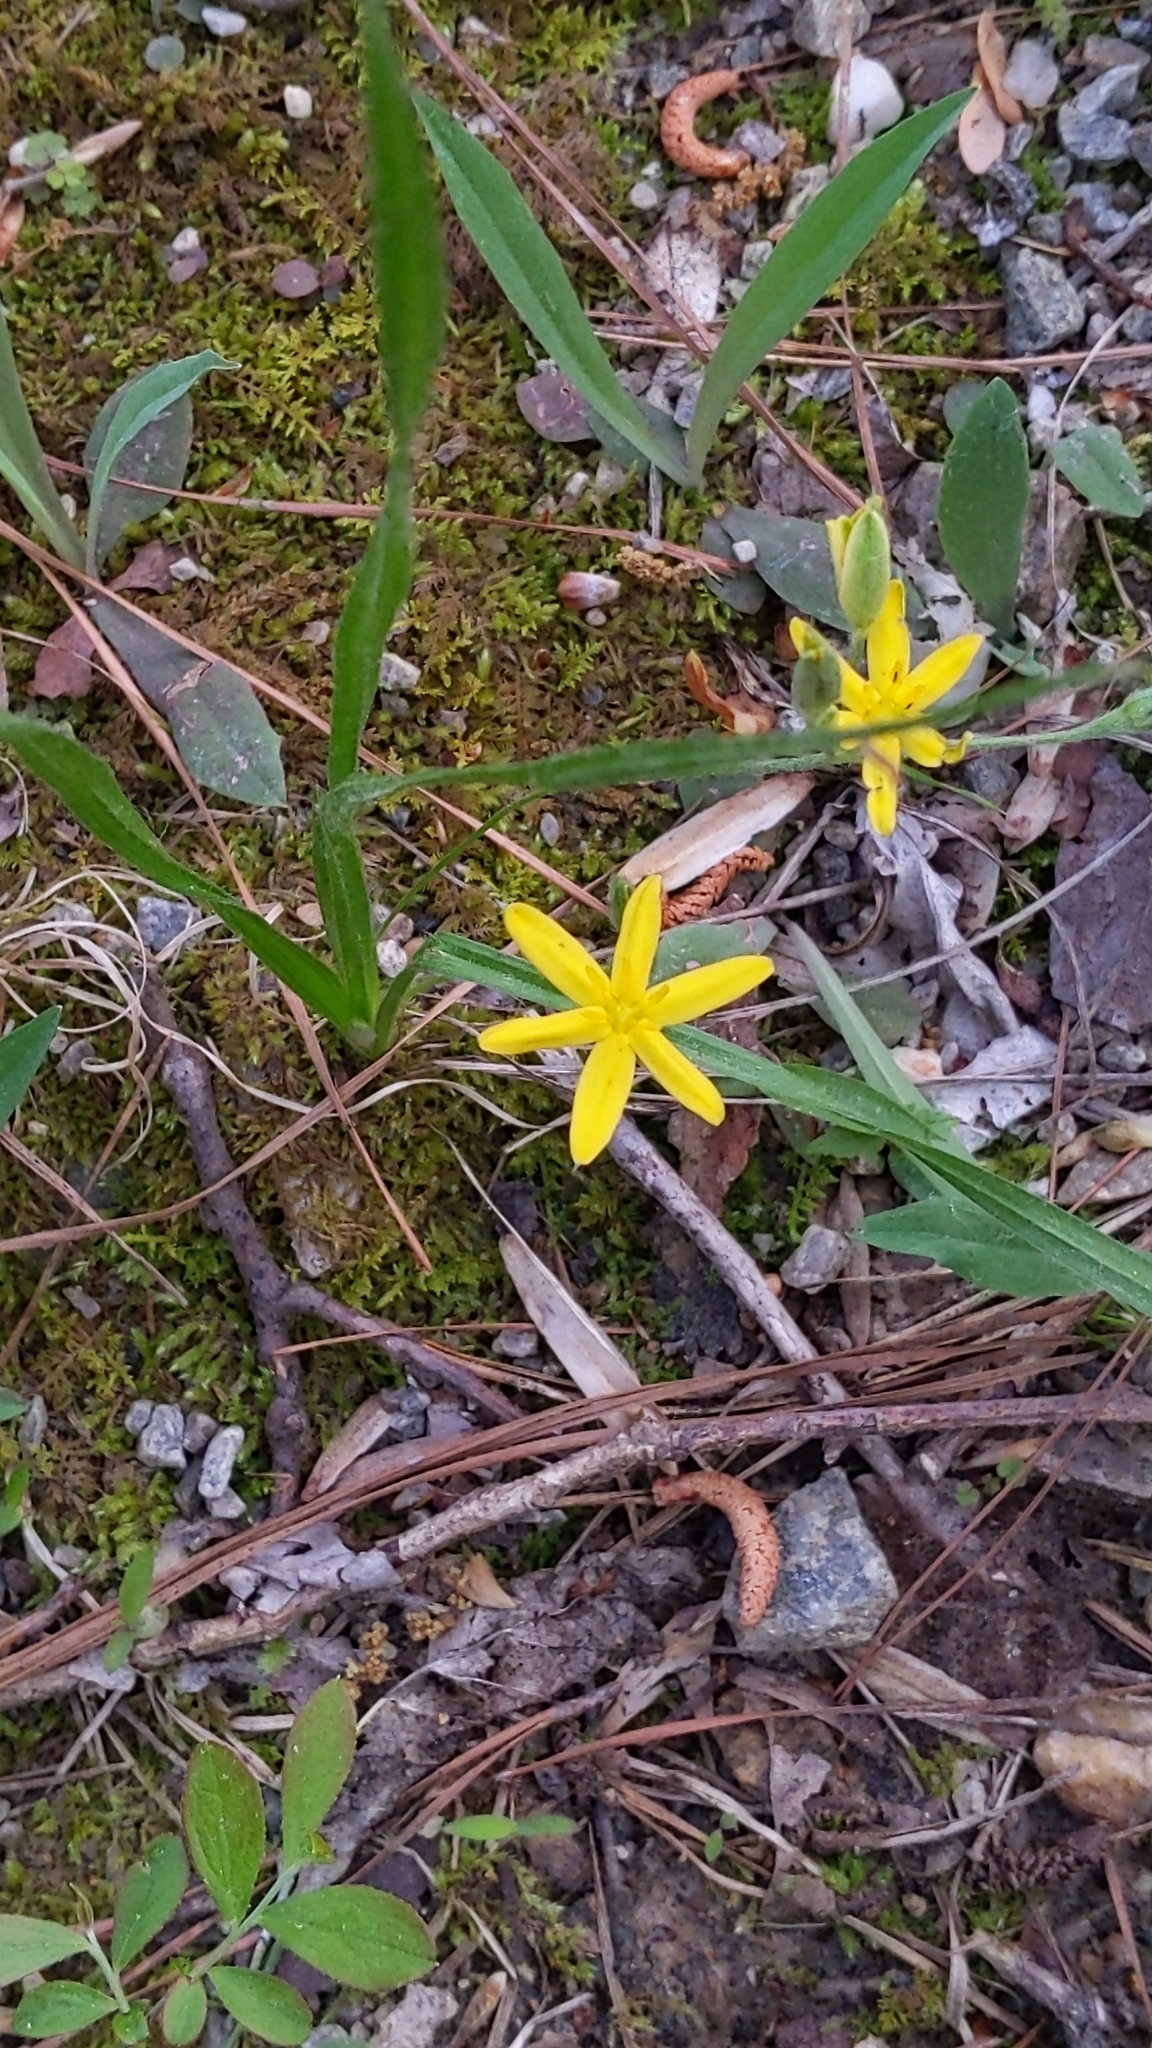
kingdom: Plantae
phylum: Tracheophyta
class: Liliopsida
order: Asparagales
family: Hypoxidaceae
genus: Hypoxis
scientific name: Hypoxis hirsuta
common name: Common goldstar
